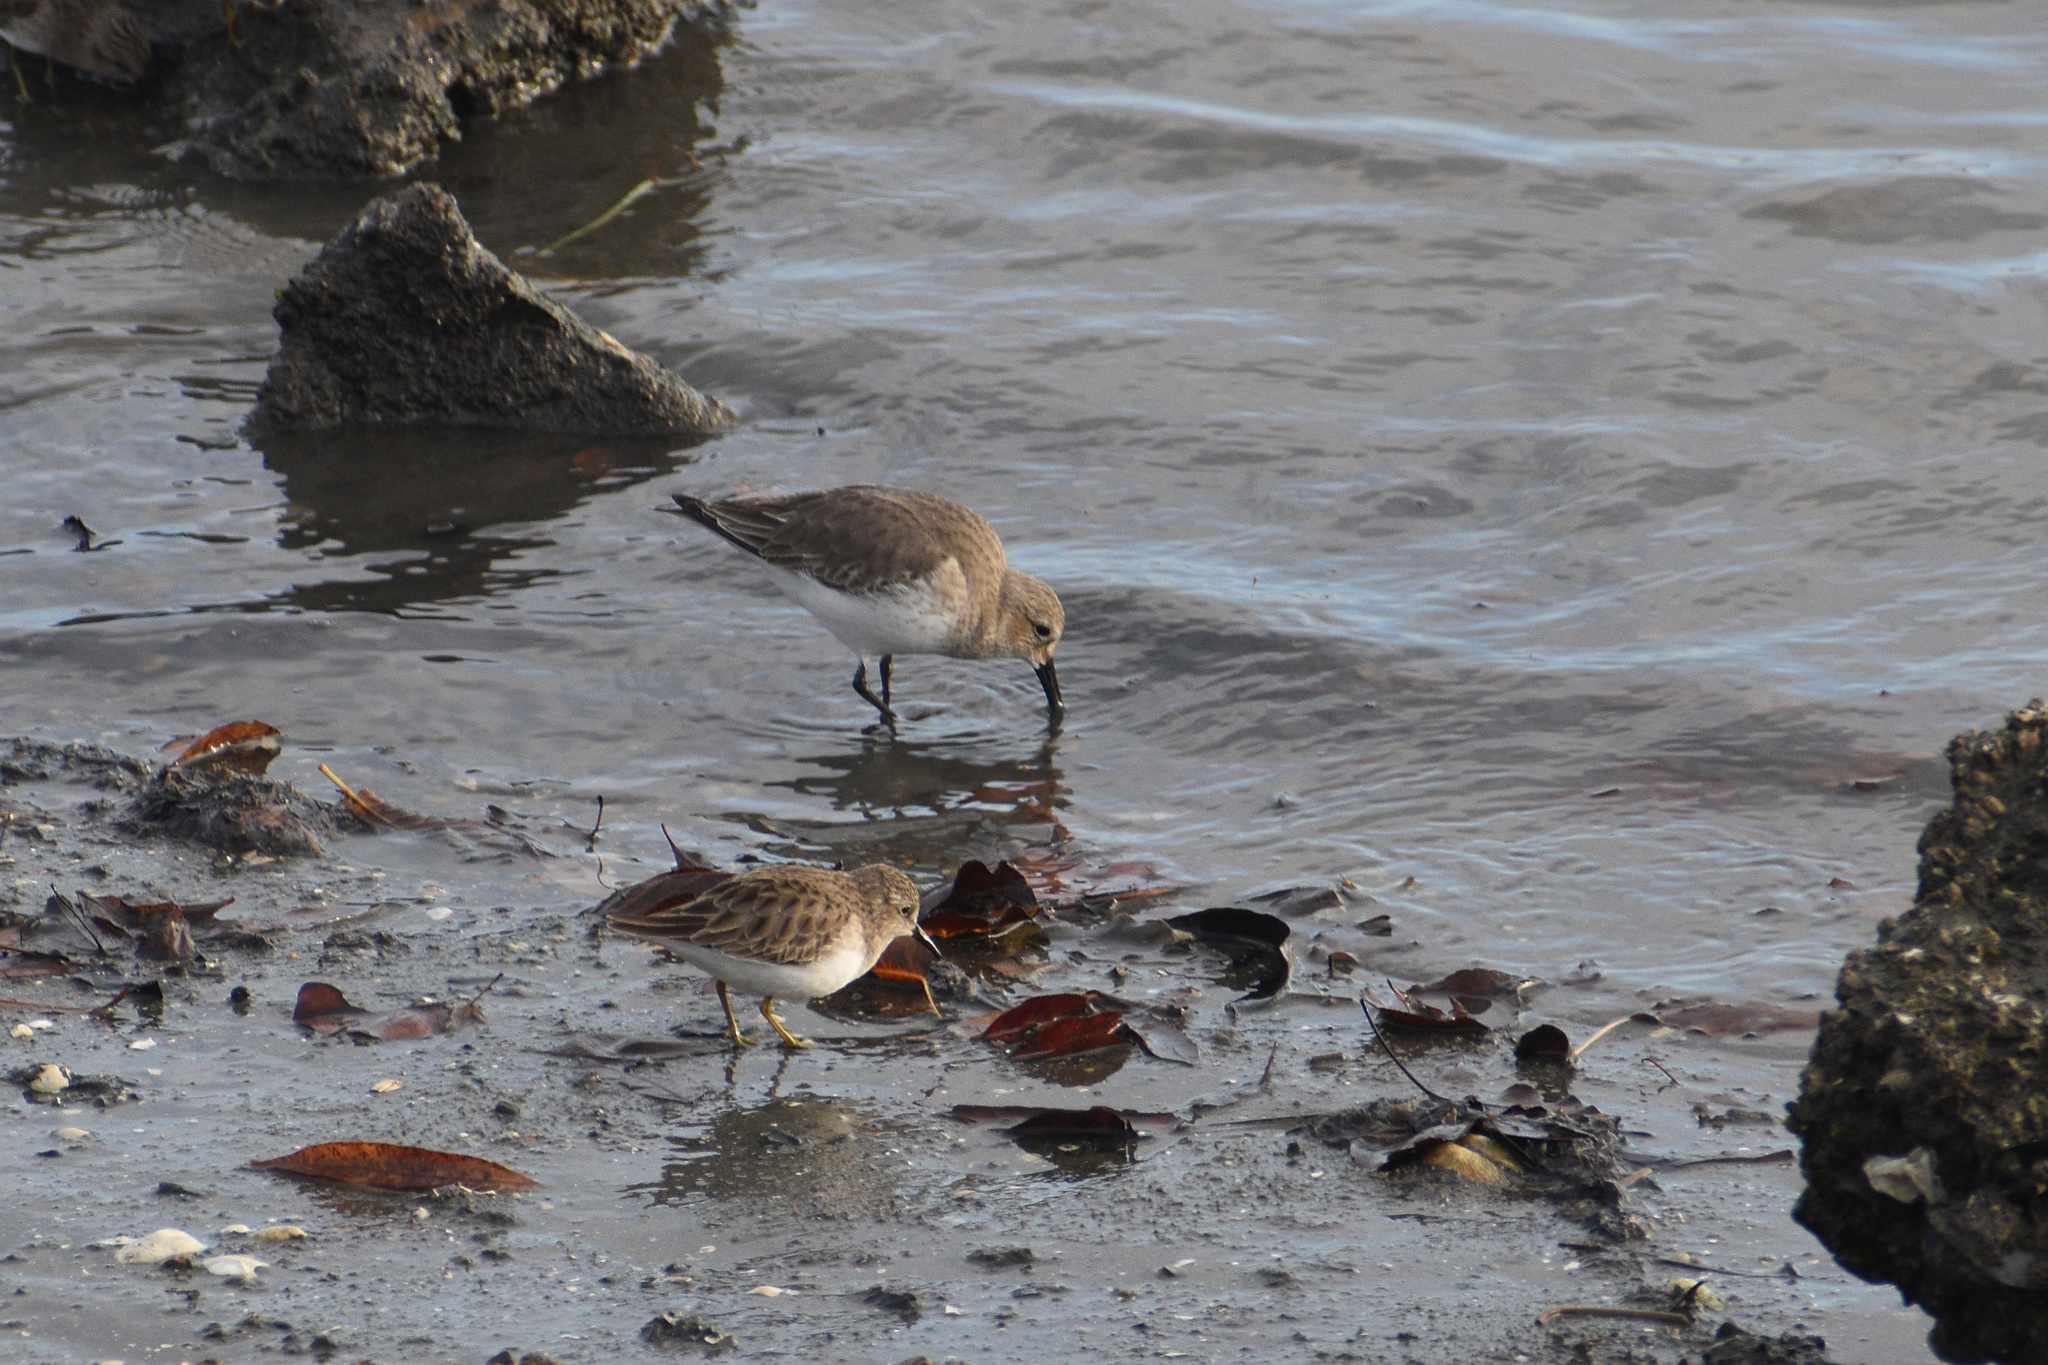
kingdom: Animalia
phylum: Chordata
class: Aves
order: Charadriiformes
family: Scolopacidae
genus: Calidris
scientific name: Calidris alpina
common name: Dunlin
